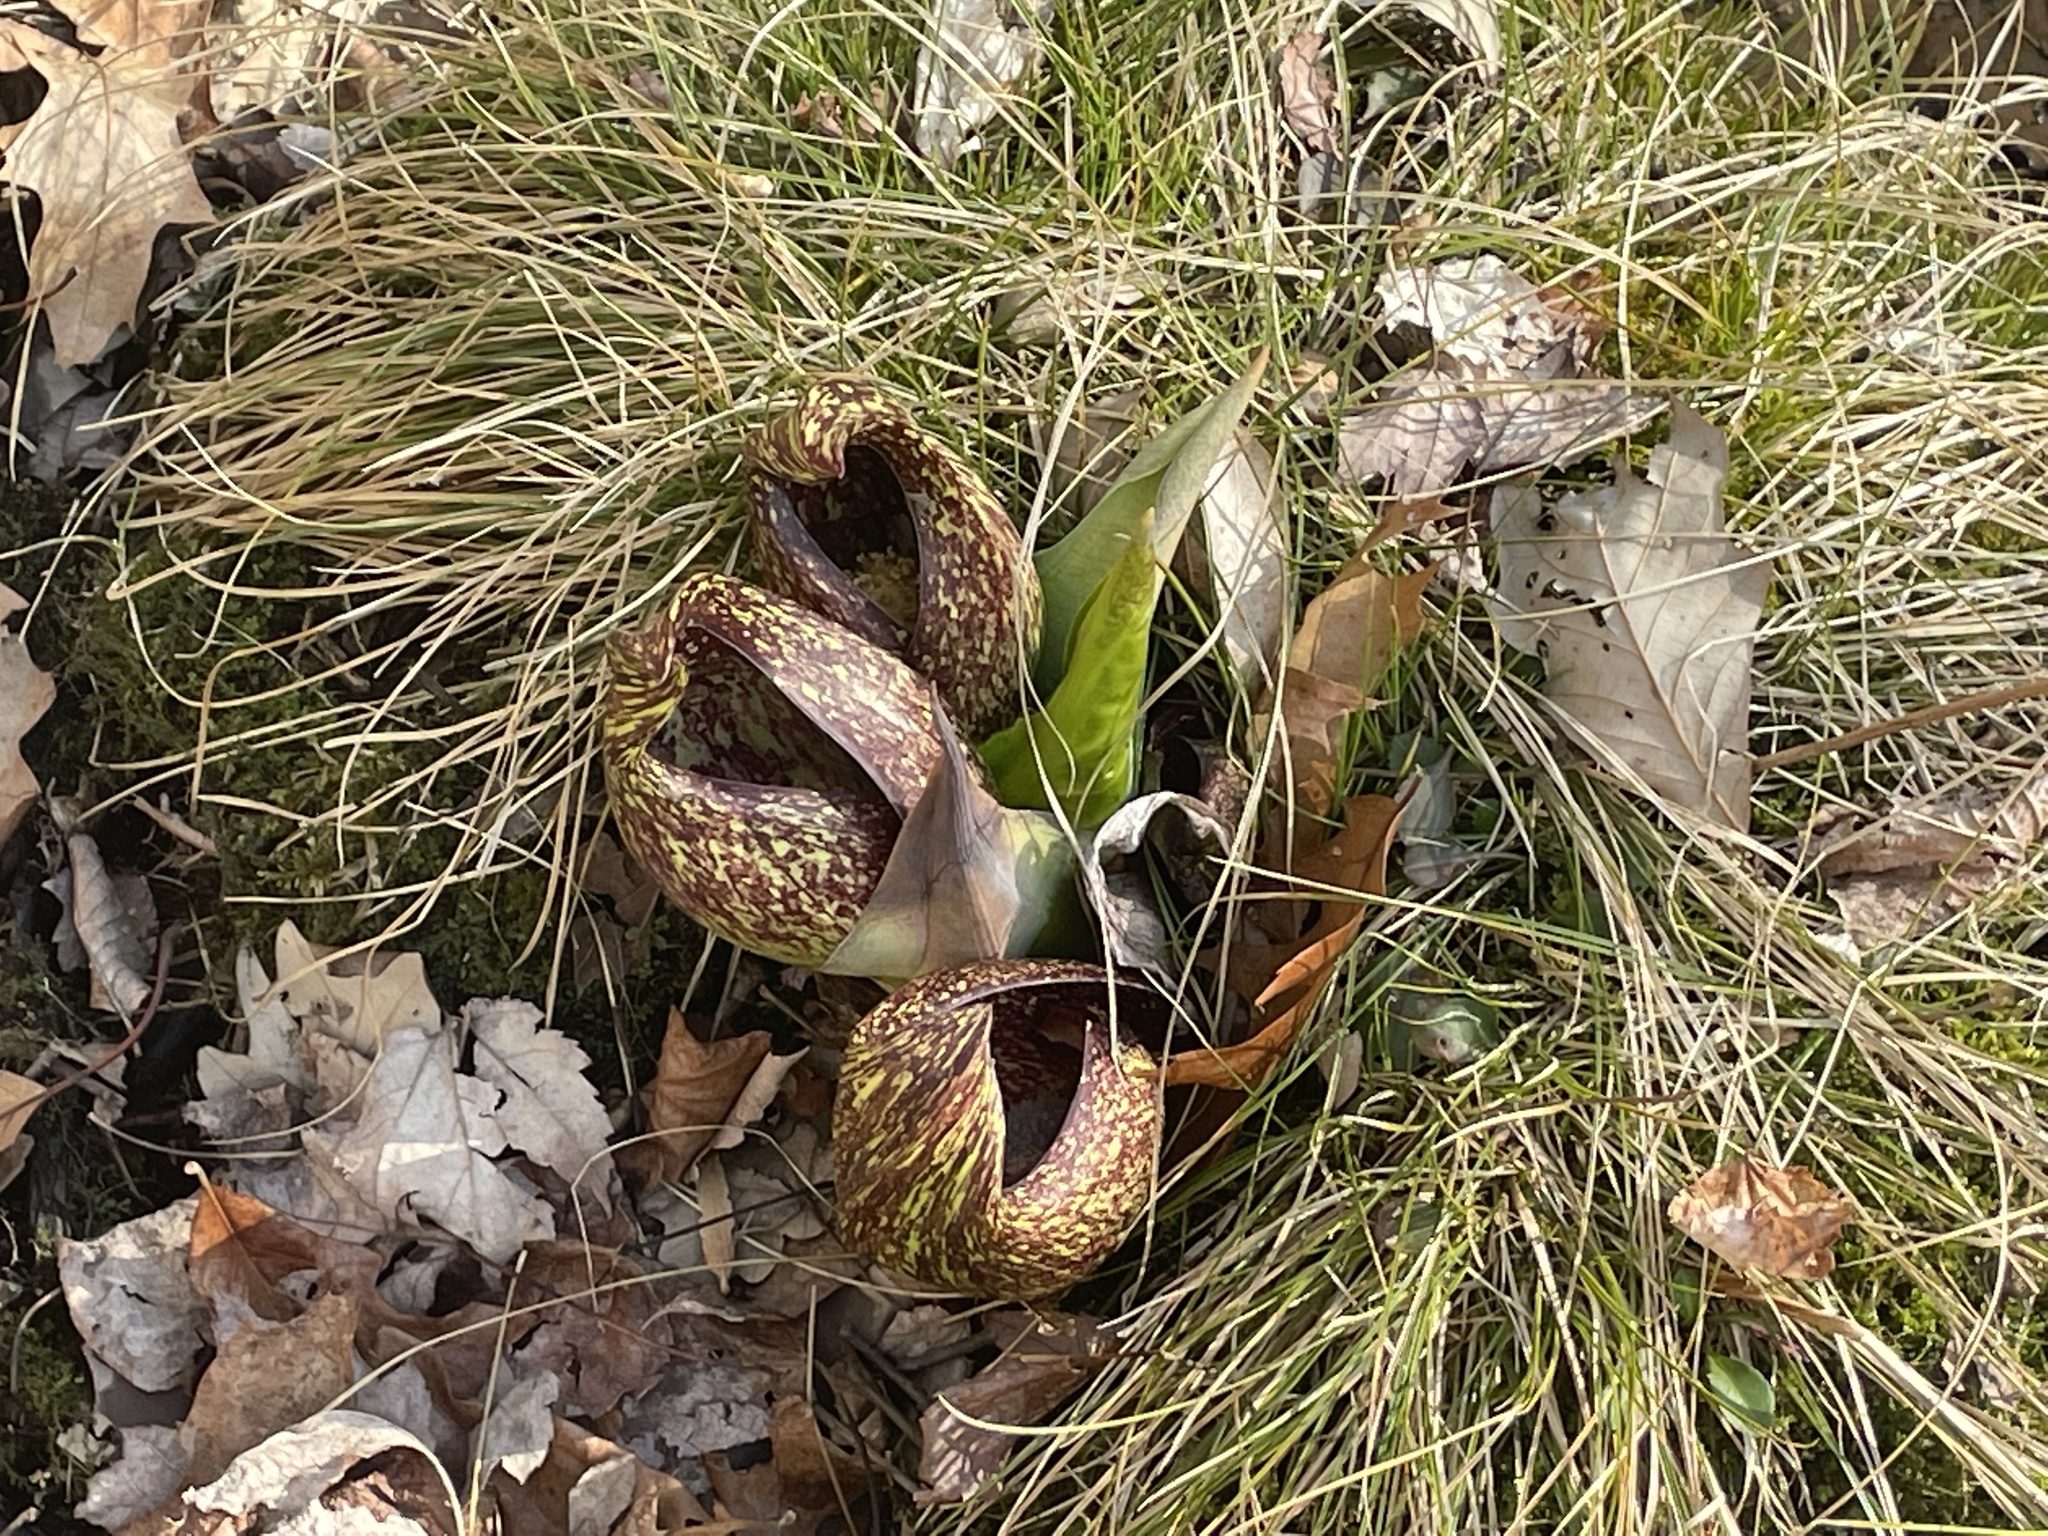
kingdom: Plantae
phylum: Tracheophyta
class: Liliopsida
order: Alismatales
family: Araceae
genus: Symplocarpus
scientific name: Symplocarpus foetidus
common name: Eastern skunk cabbage
